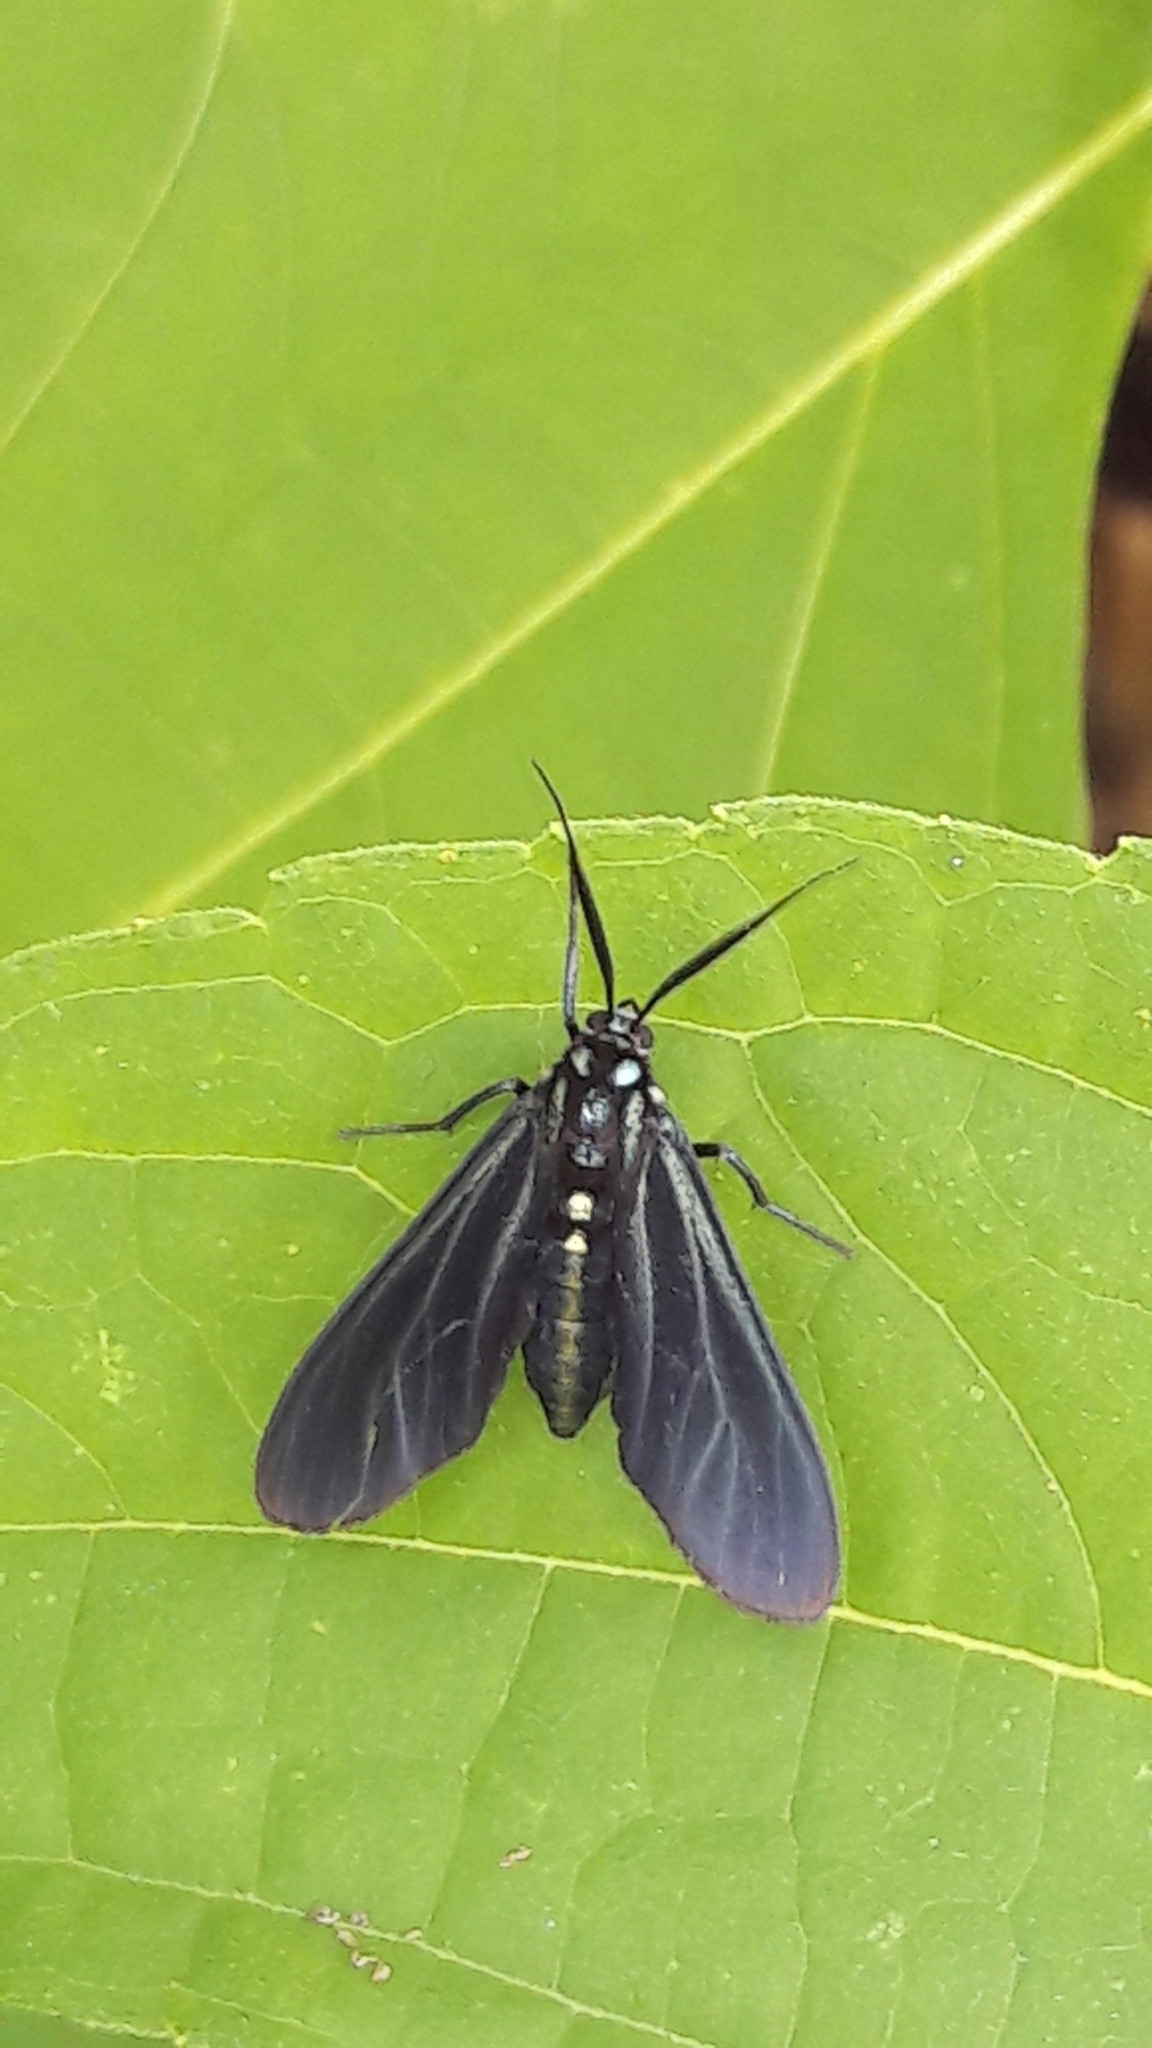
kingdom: Animalia
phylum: Arthropoda
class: Insecta
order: Lepidoptera
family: Erebidae
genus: Antichloris
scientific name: Antichloris eriphia
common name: Banana stowaway
